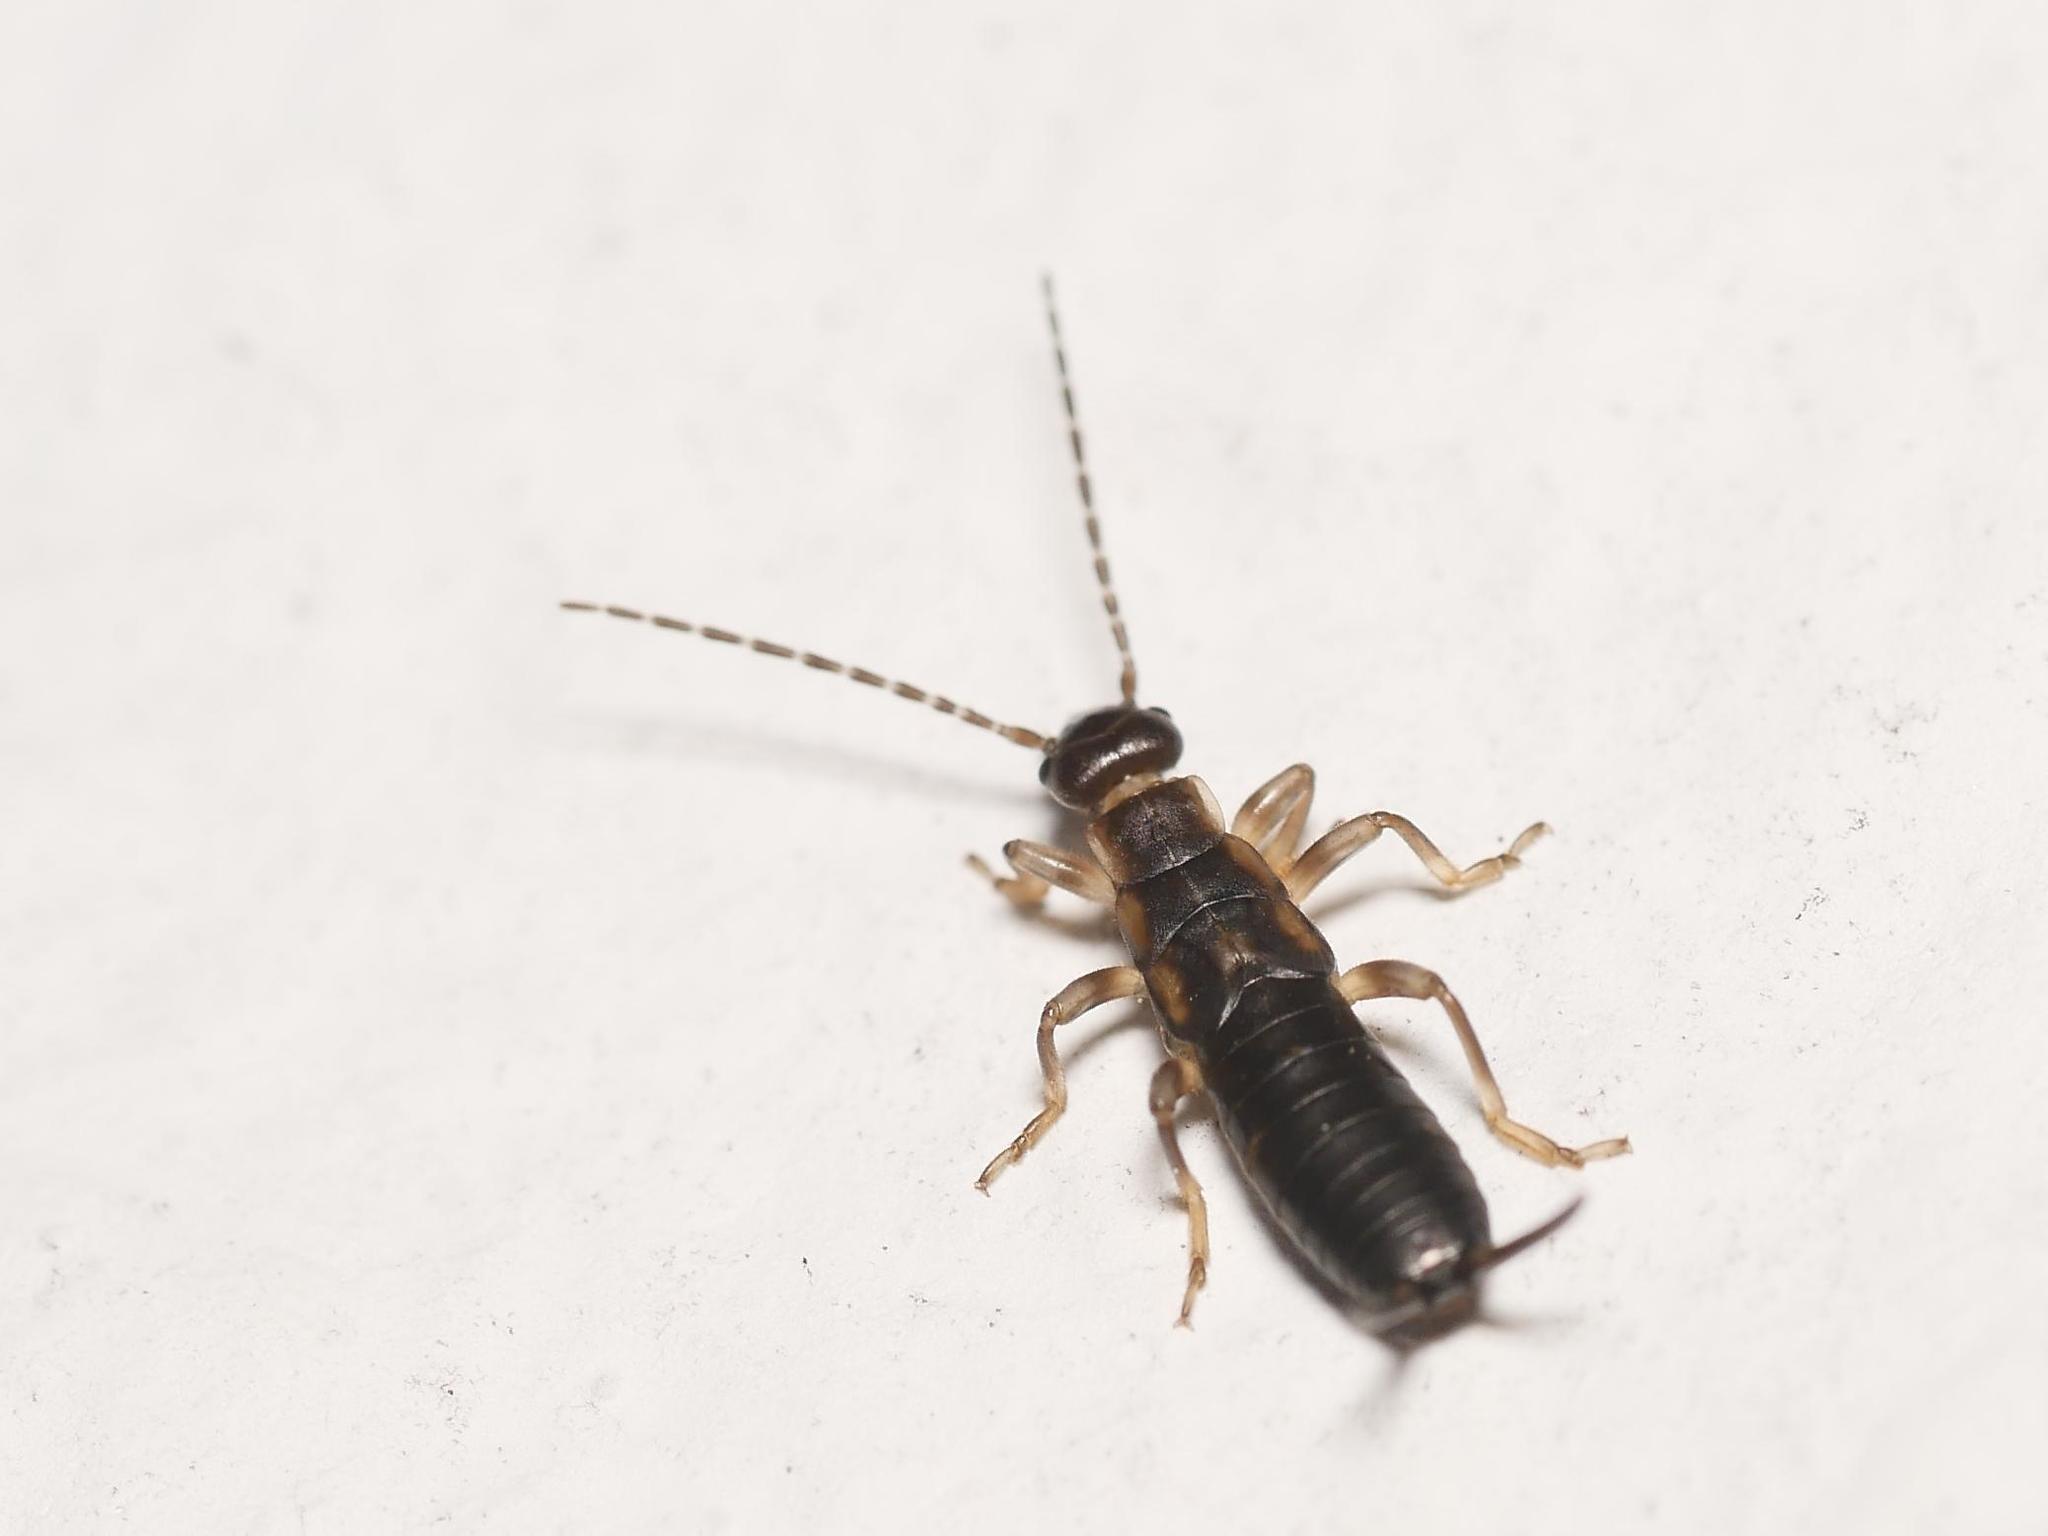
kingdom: Animalia
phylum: Arthropoda
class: Insecta
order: Dermaptera
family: Forficulidae
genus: Forficula
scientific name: Forficula
